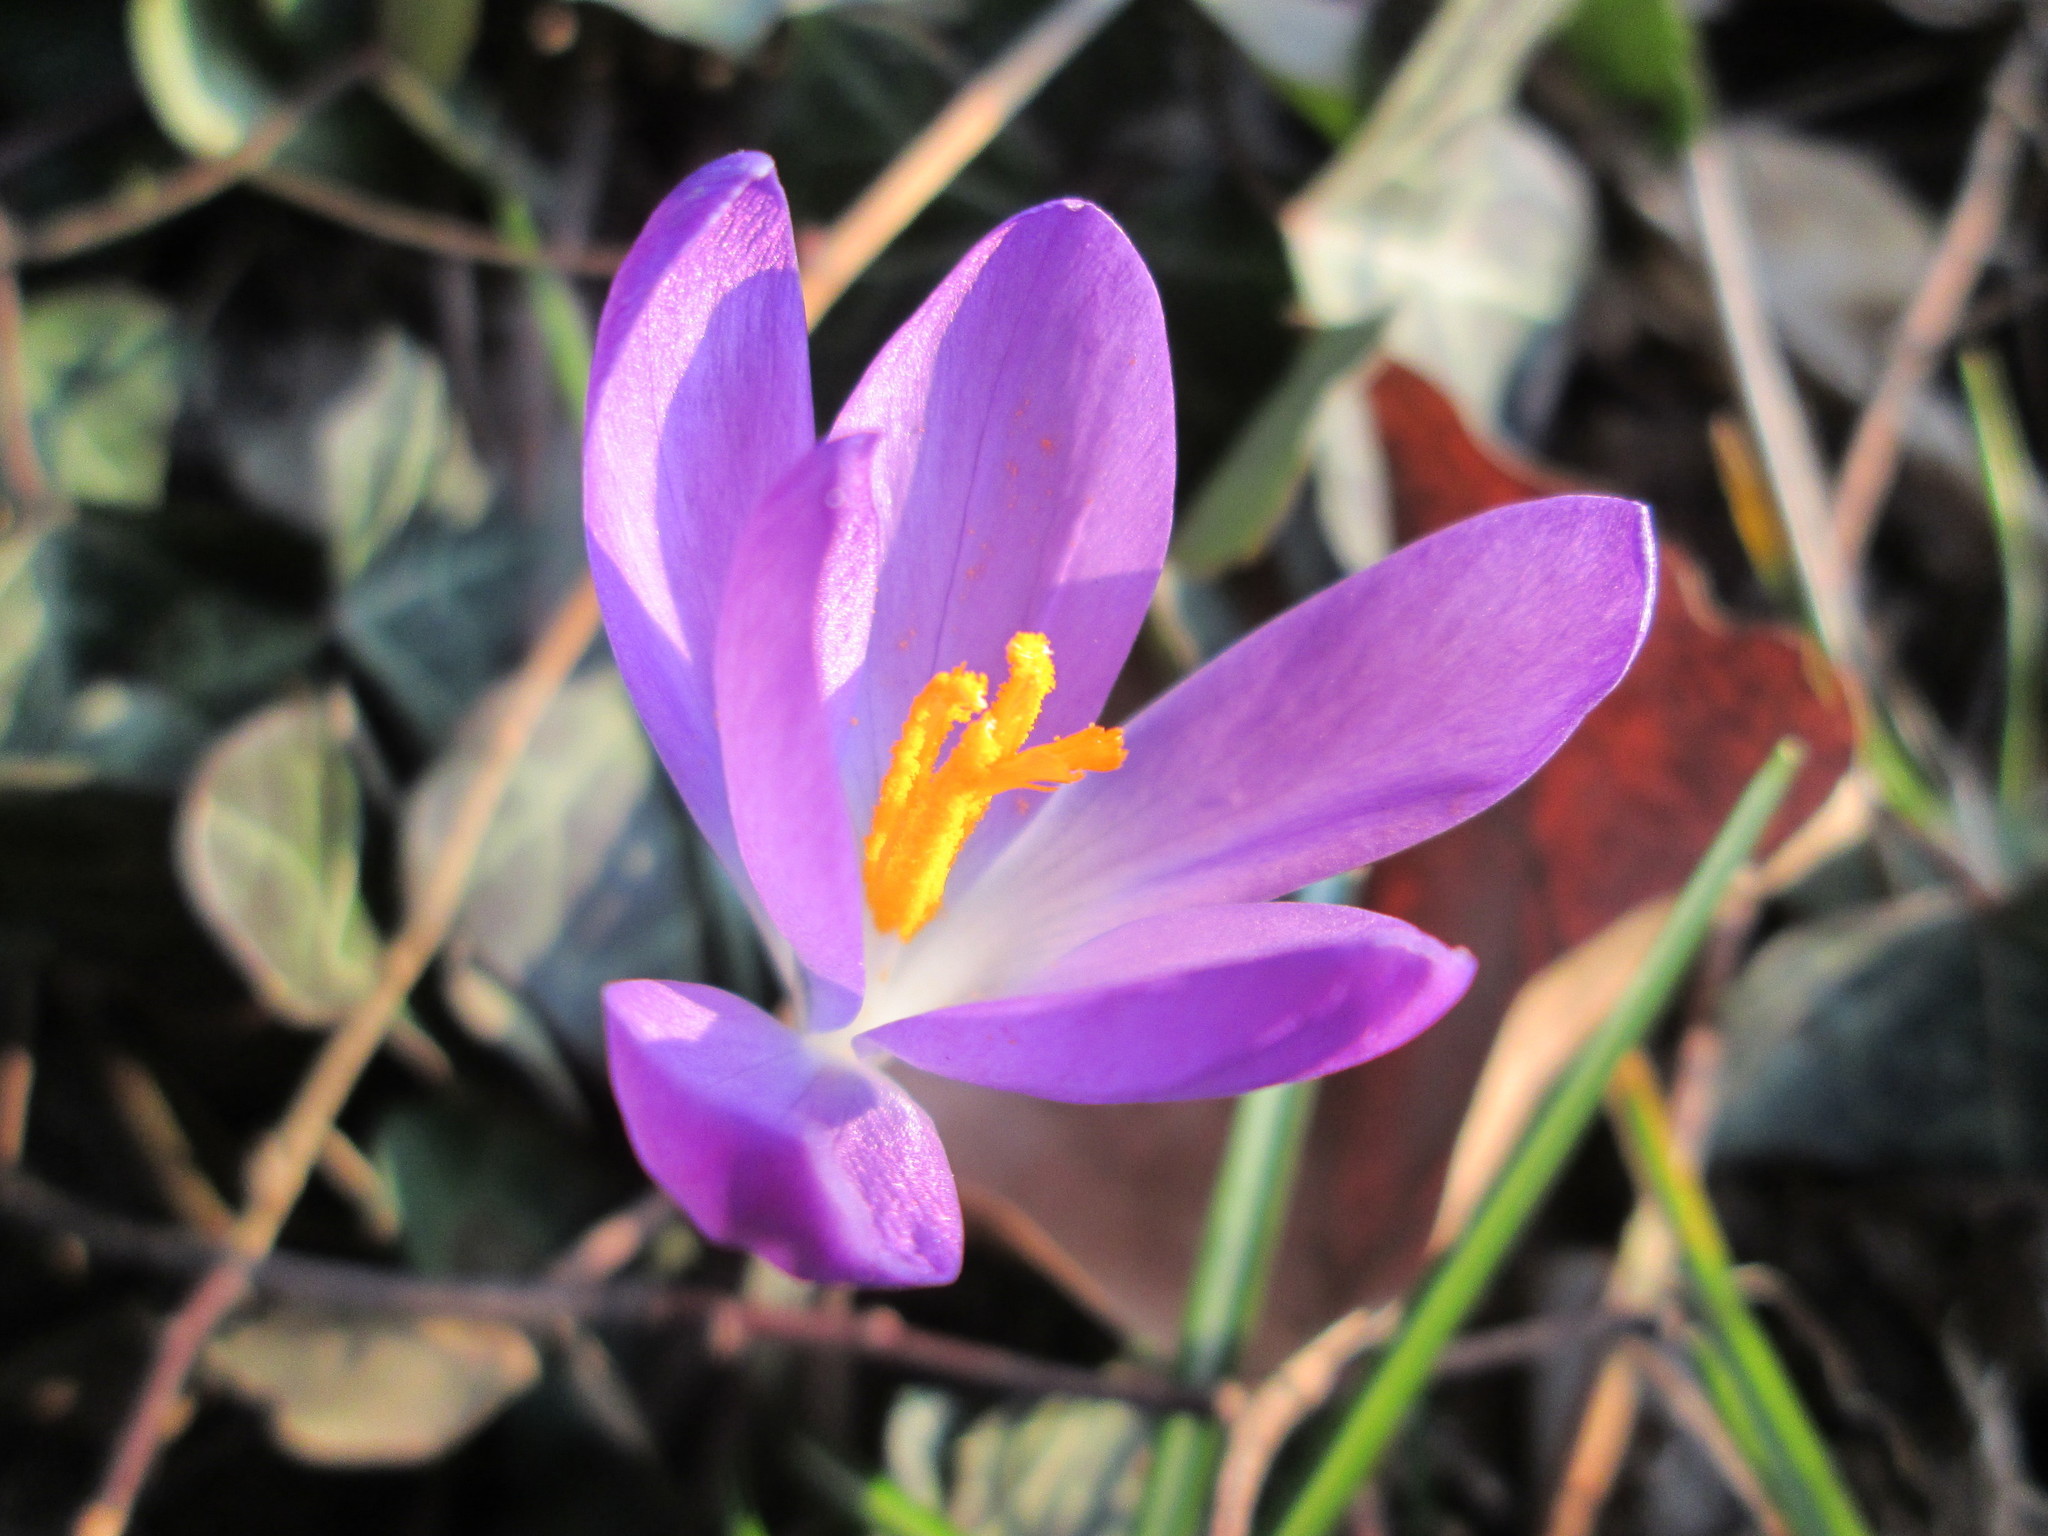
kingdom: Plantae
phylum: Tracheophyta
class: Liliopsida
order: Asparagales
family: Iridaceae
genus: Crocus
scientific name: Crocus tommasinianus
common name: Early crocus
